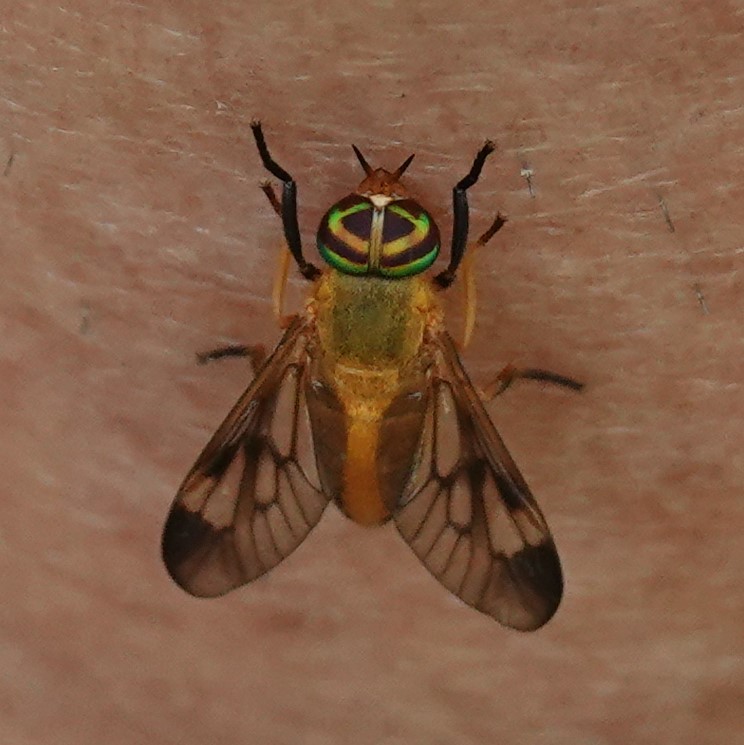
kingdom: Animalia
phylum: Arthropoda
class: Insecta
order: Diptera
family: Tabanidae
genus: Diachlorus
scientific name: Diachlorus ferrugatus
